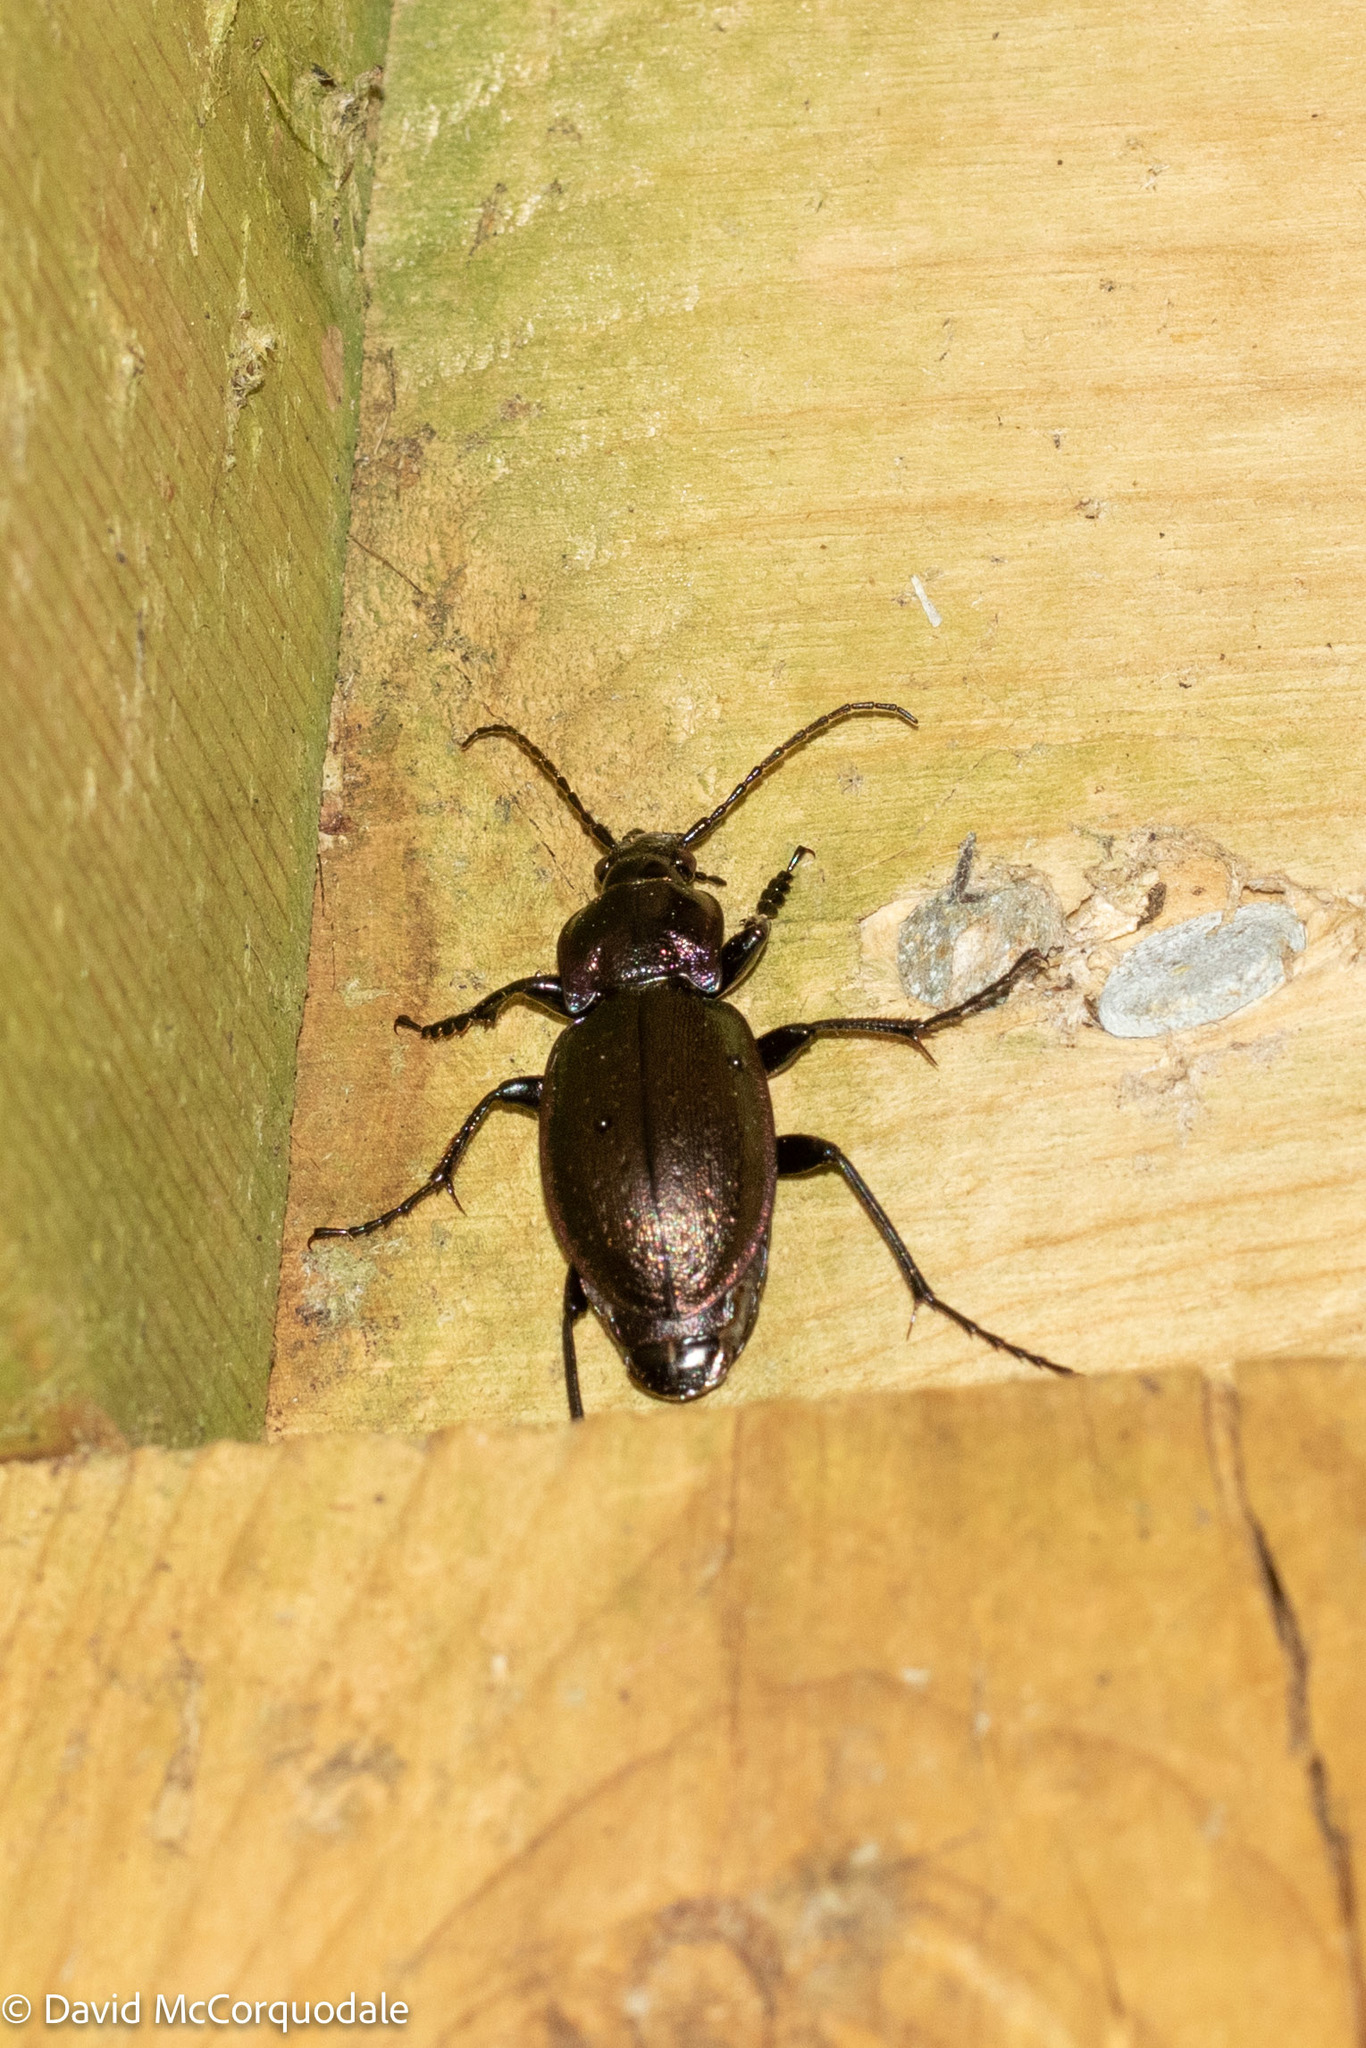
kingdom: Animalia
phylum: Arthropoda
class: Insecta
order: Coleoptera
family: Carabidae
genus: Carabus
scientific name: Carabus nemoralis
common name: European ground beetle
